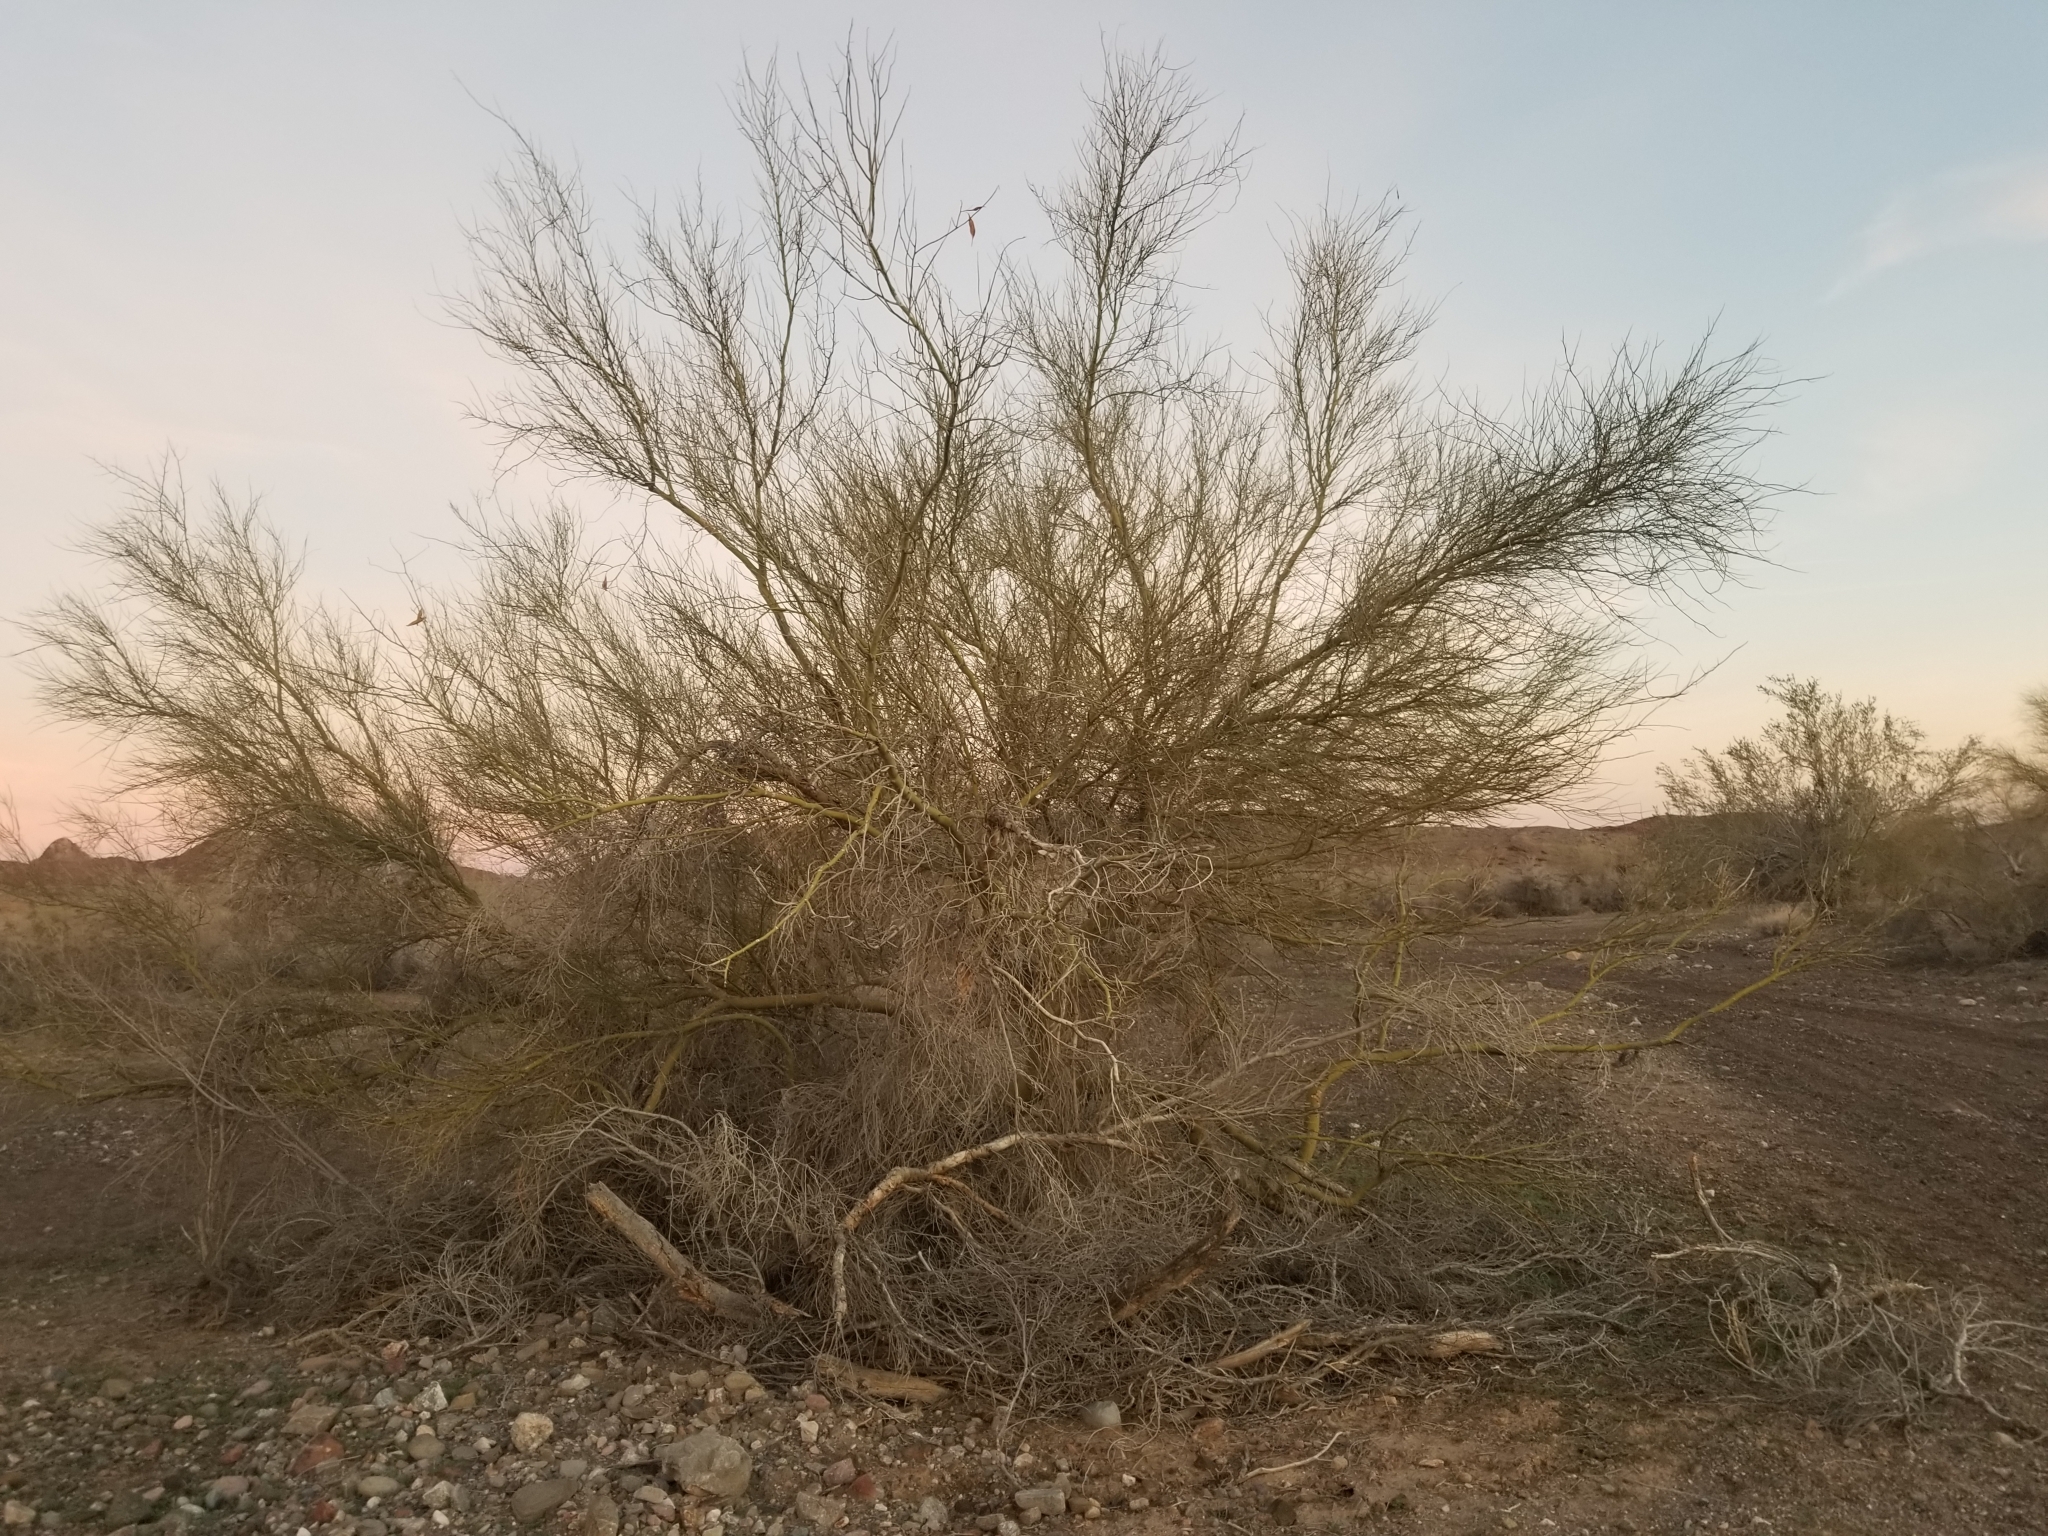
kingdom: Plantae
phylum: Tracheophyta
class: Magnoliopsida
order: Fabales
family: Fabaceae
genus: Parkinsonia
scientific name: Parkinsonia florida
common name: Blue paloverde
